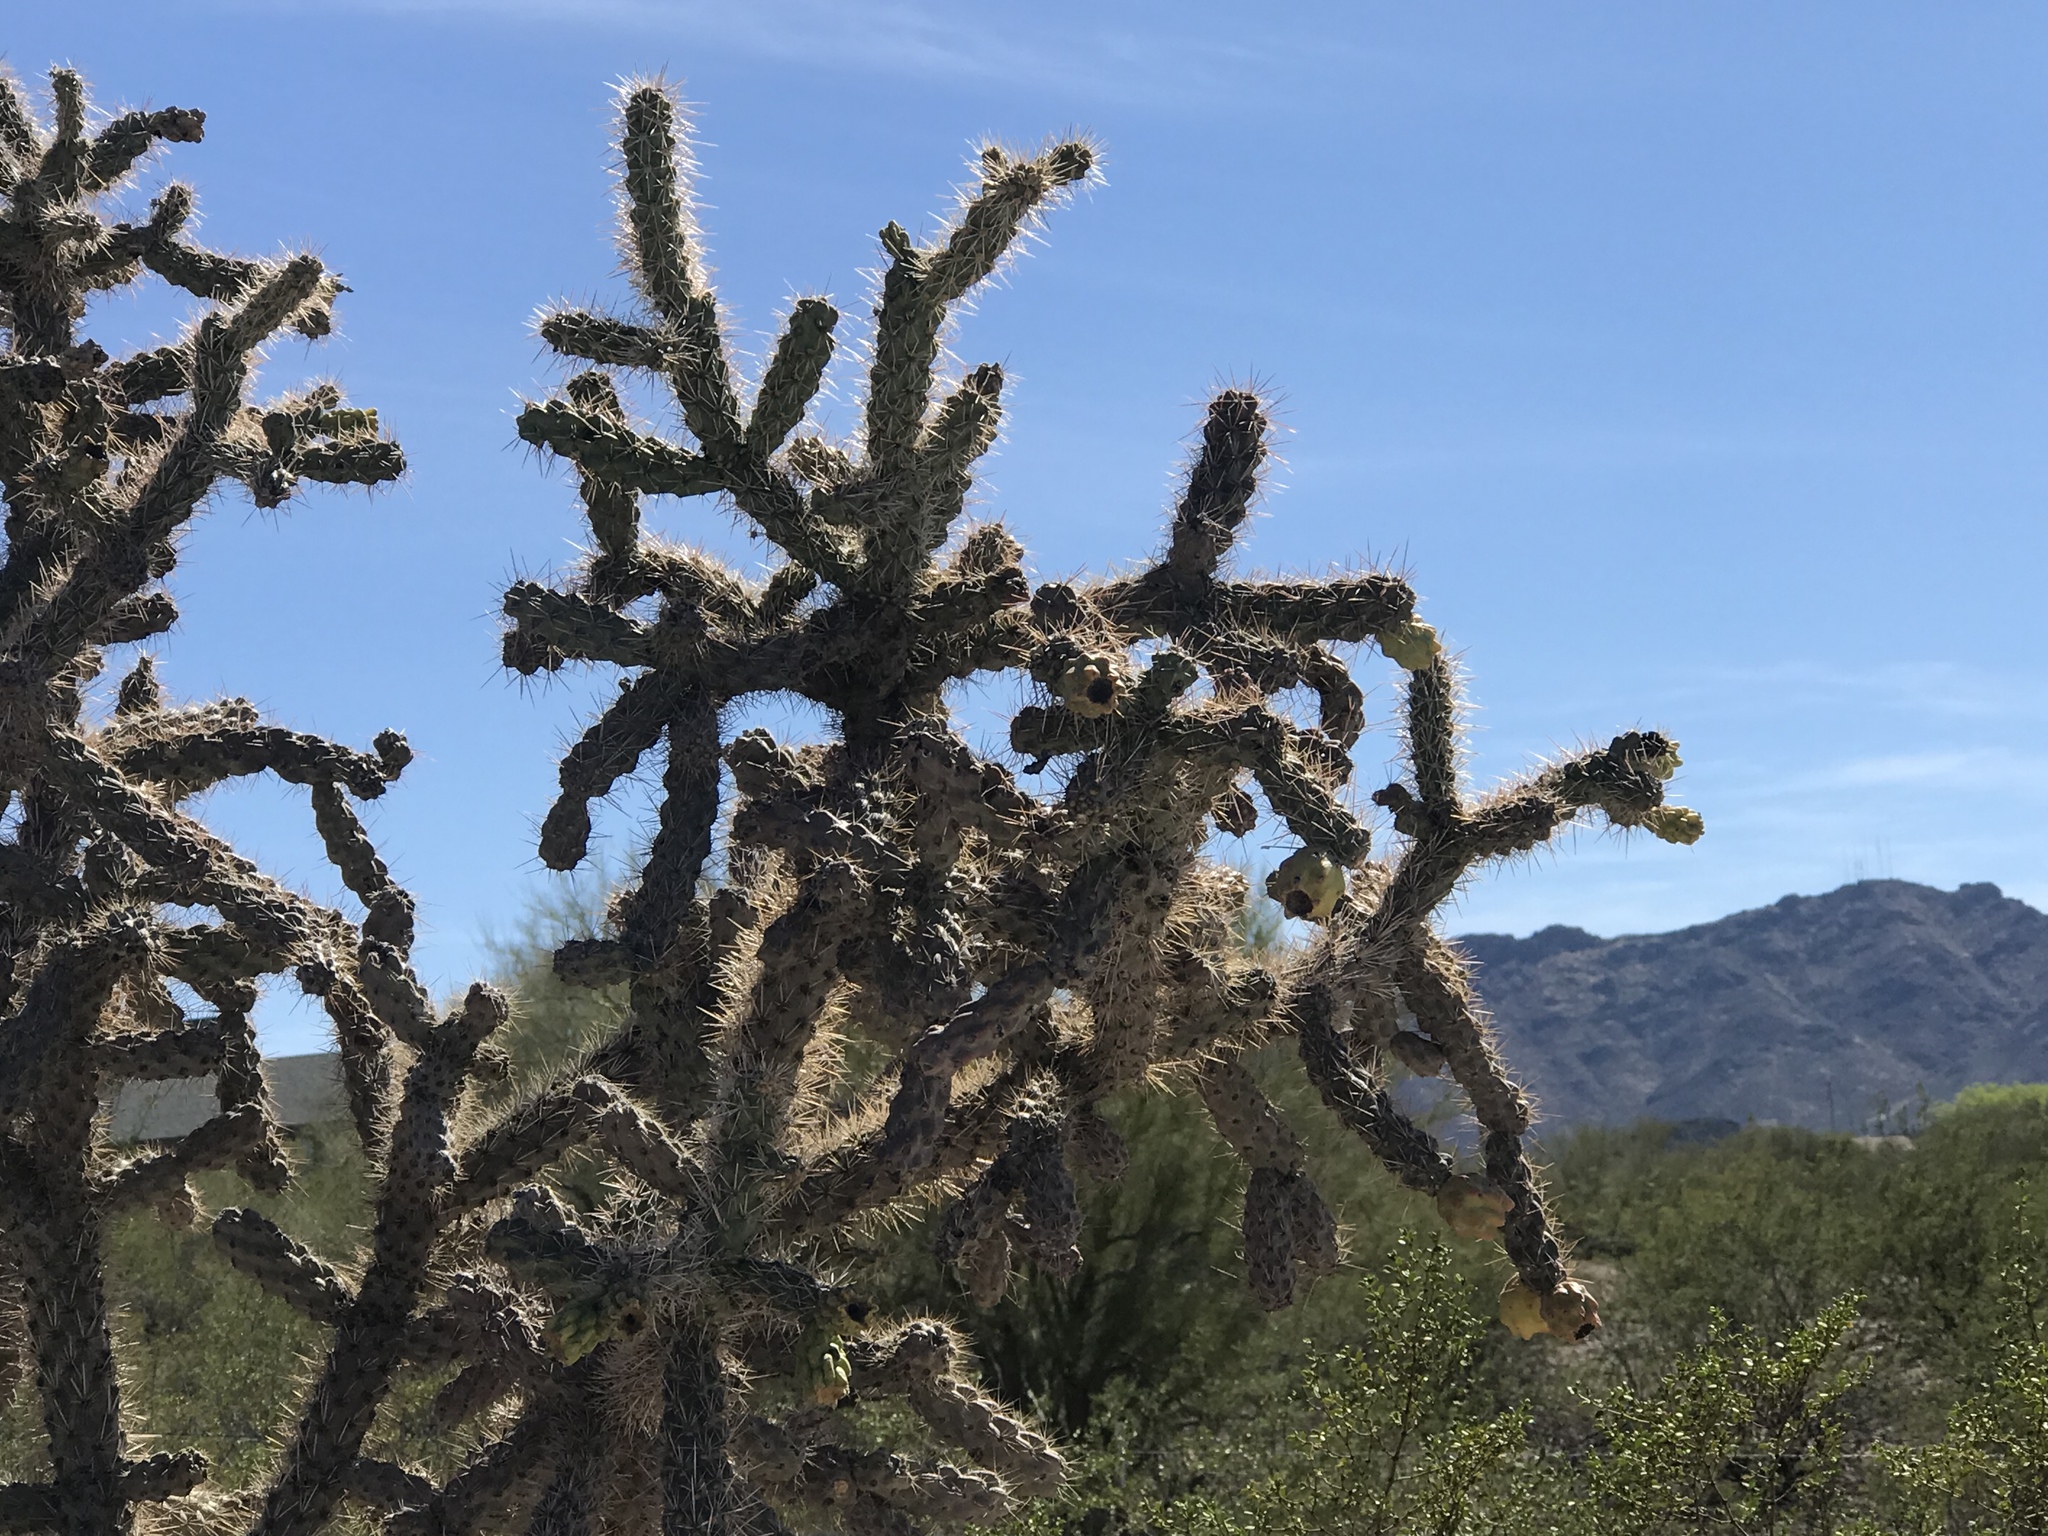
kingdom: Plantae
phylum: Tracheophyta
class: Magnoliopsida
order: Caryophyllales
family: Cactaceae
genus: Cylindropuntia
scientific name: Cylindropuntia acanthocarpa
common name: Buckhorn cholla
